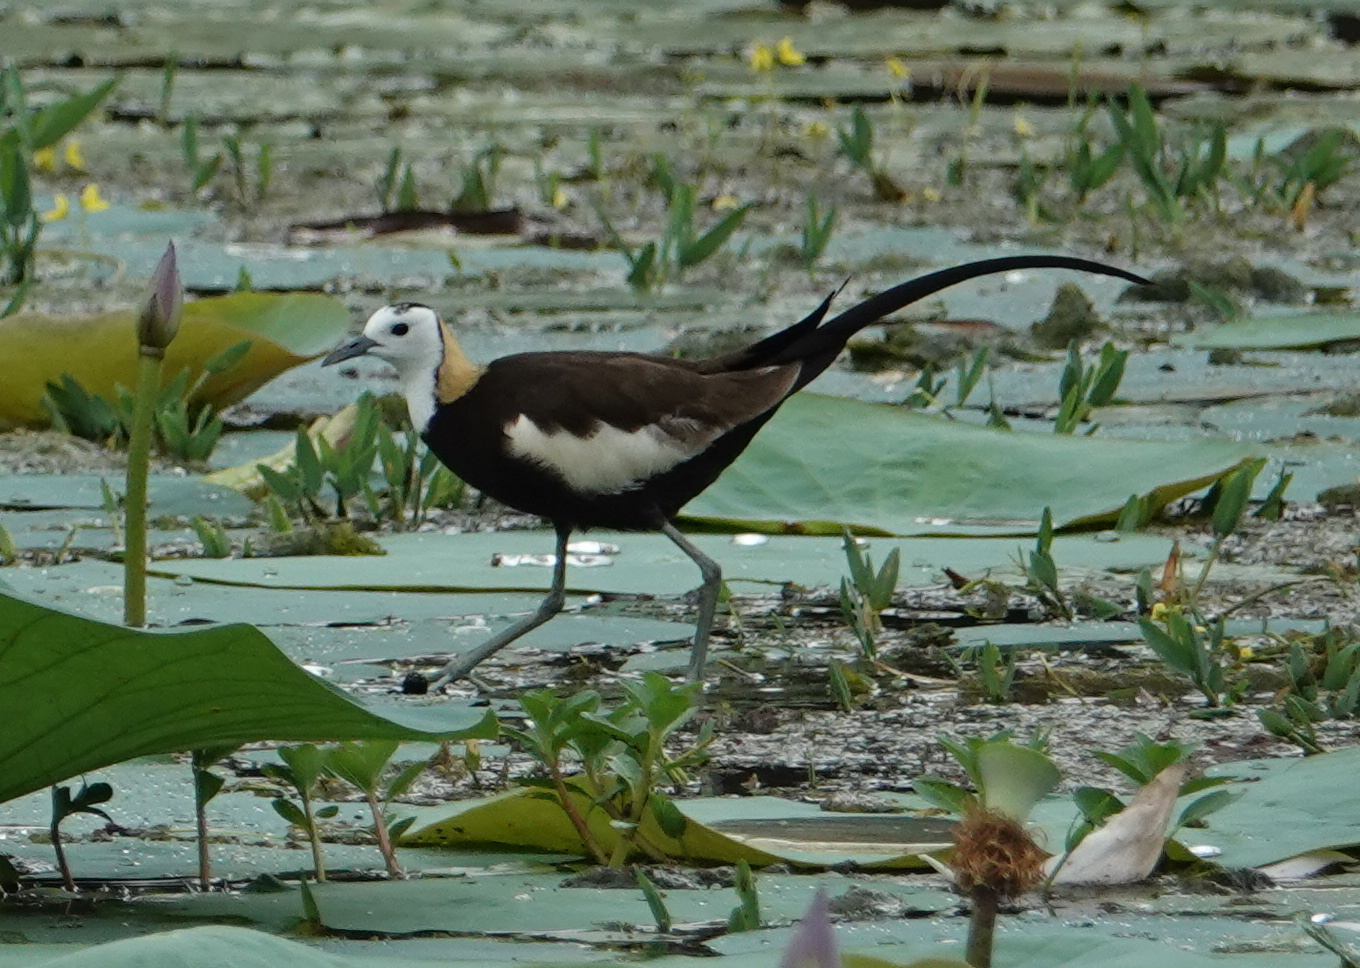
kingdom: Animalia
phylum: Chordata
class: Aves
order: Charadriiformes
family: Jacanidae
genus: Hydrophasianus
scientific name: Hydrophasianus chirurgus
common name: Pheasant-tailed jacana
